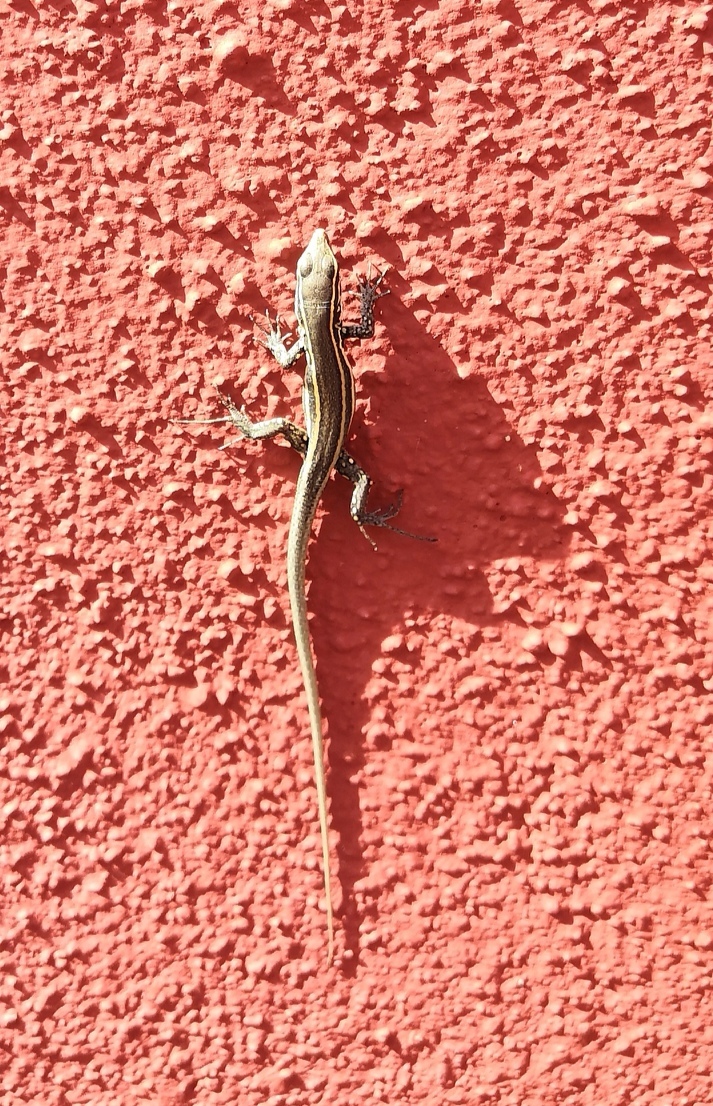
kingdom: Animalia
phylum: Chordata
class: Squamata
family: Lacertidae
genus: Gallotia
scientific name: Gallotia caesaris
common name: Boettger's lizard
